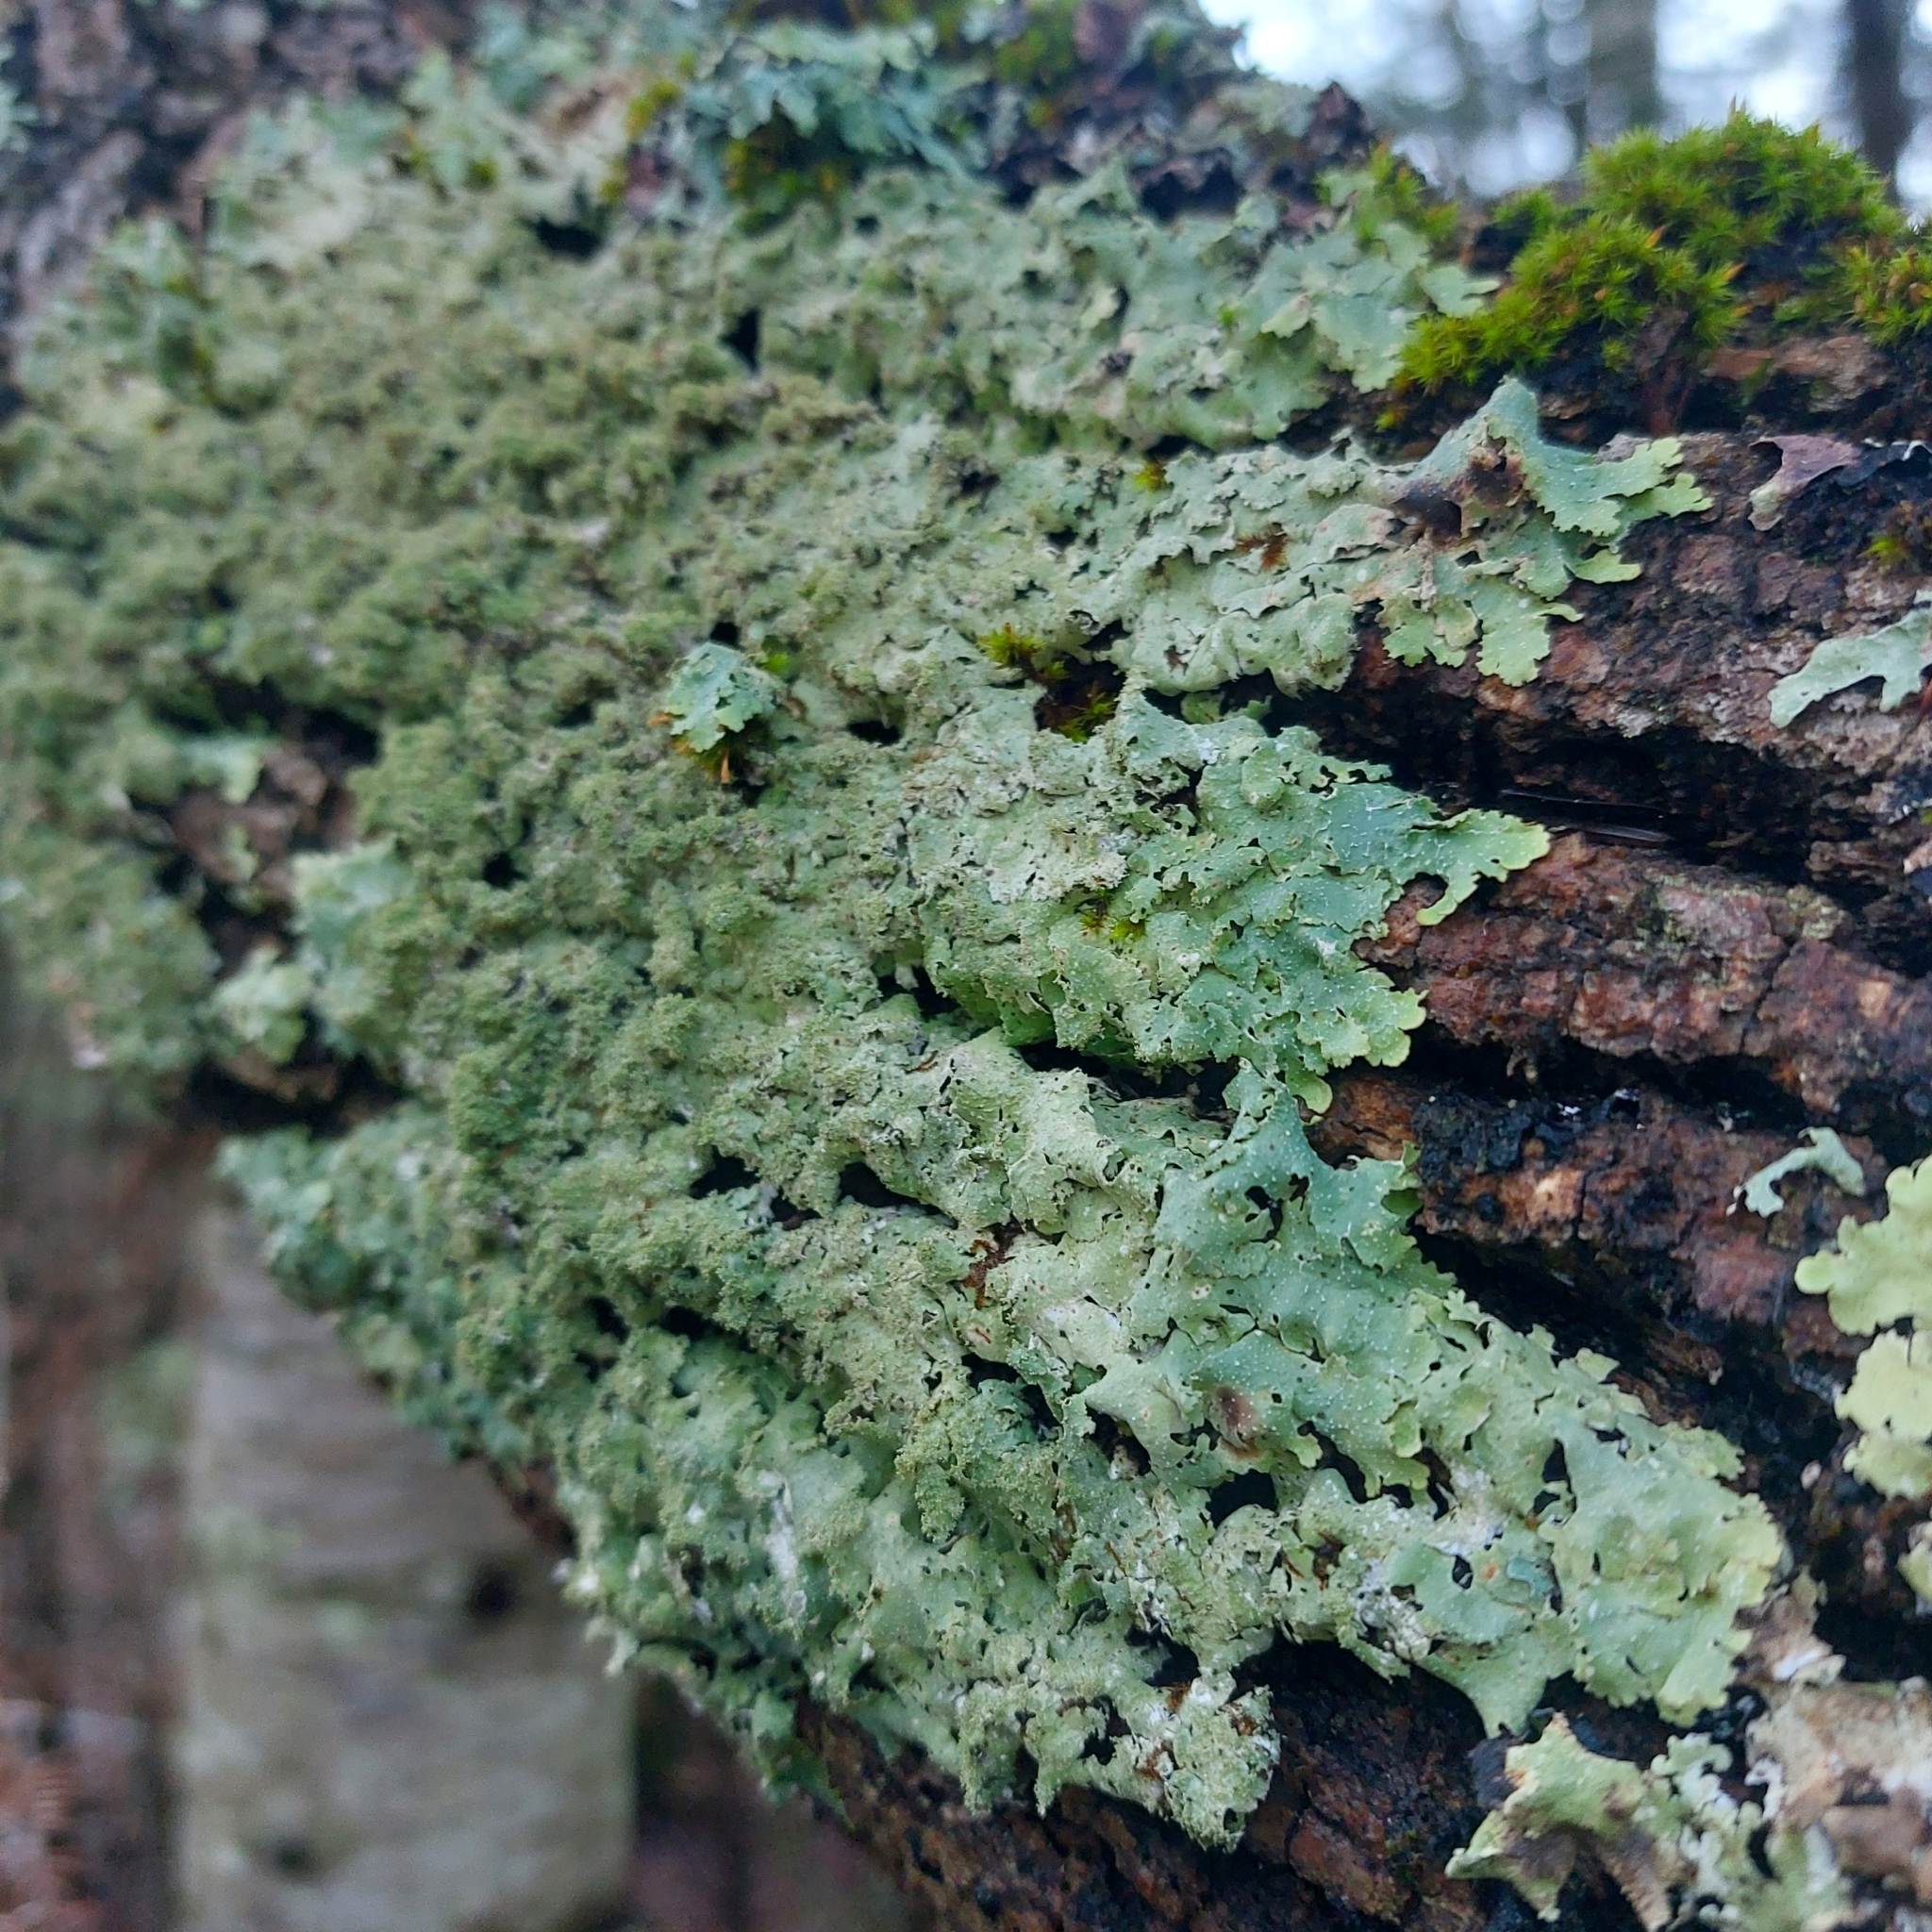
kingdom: Fungi
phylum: Ascomycota
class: Lecanoromycetes
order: Lecanorales
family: Parmeliaceae
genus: Punctelia
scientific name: Punctelia rudecta
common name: Rough speckled shield lichen
